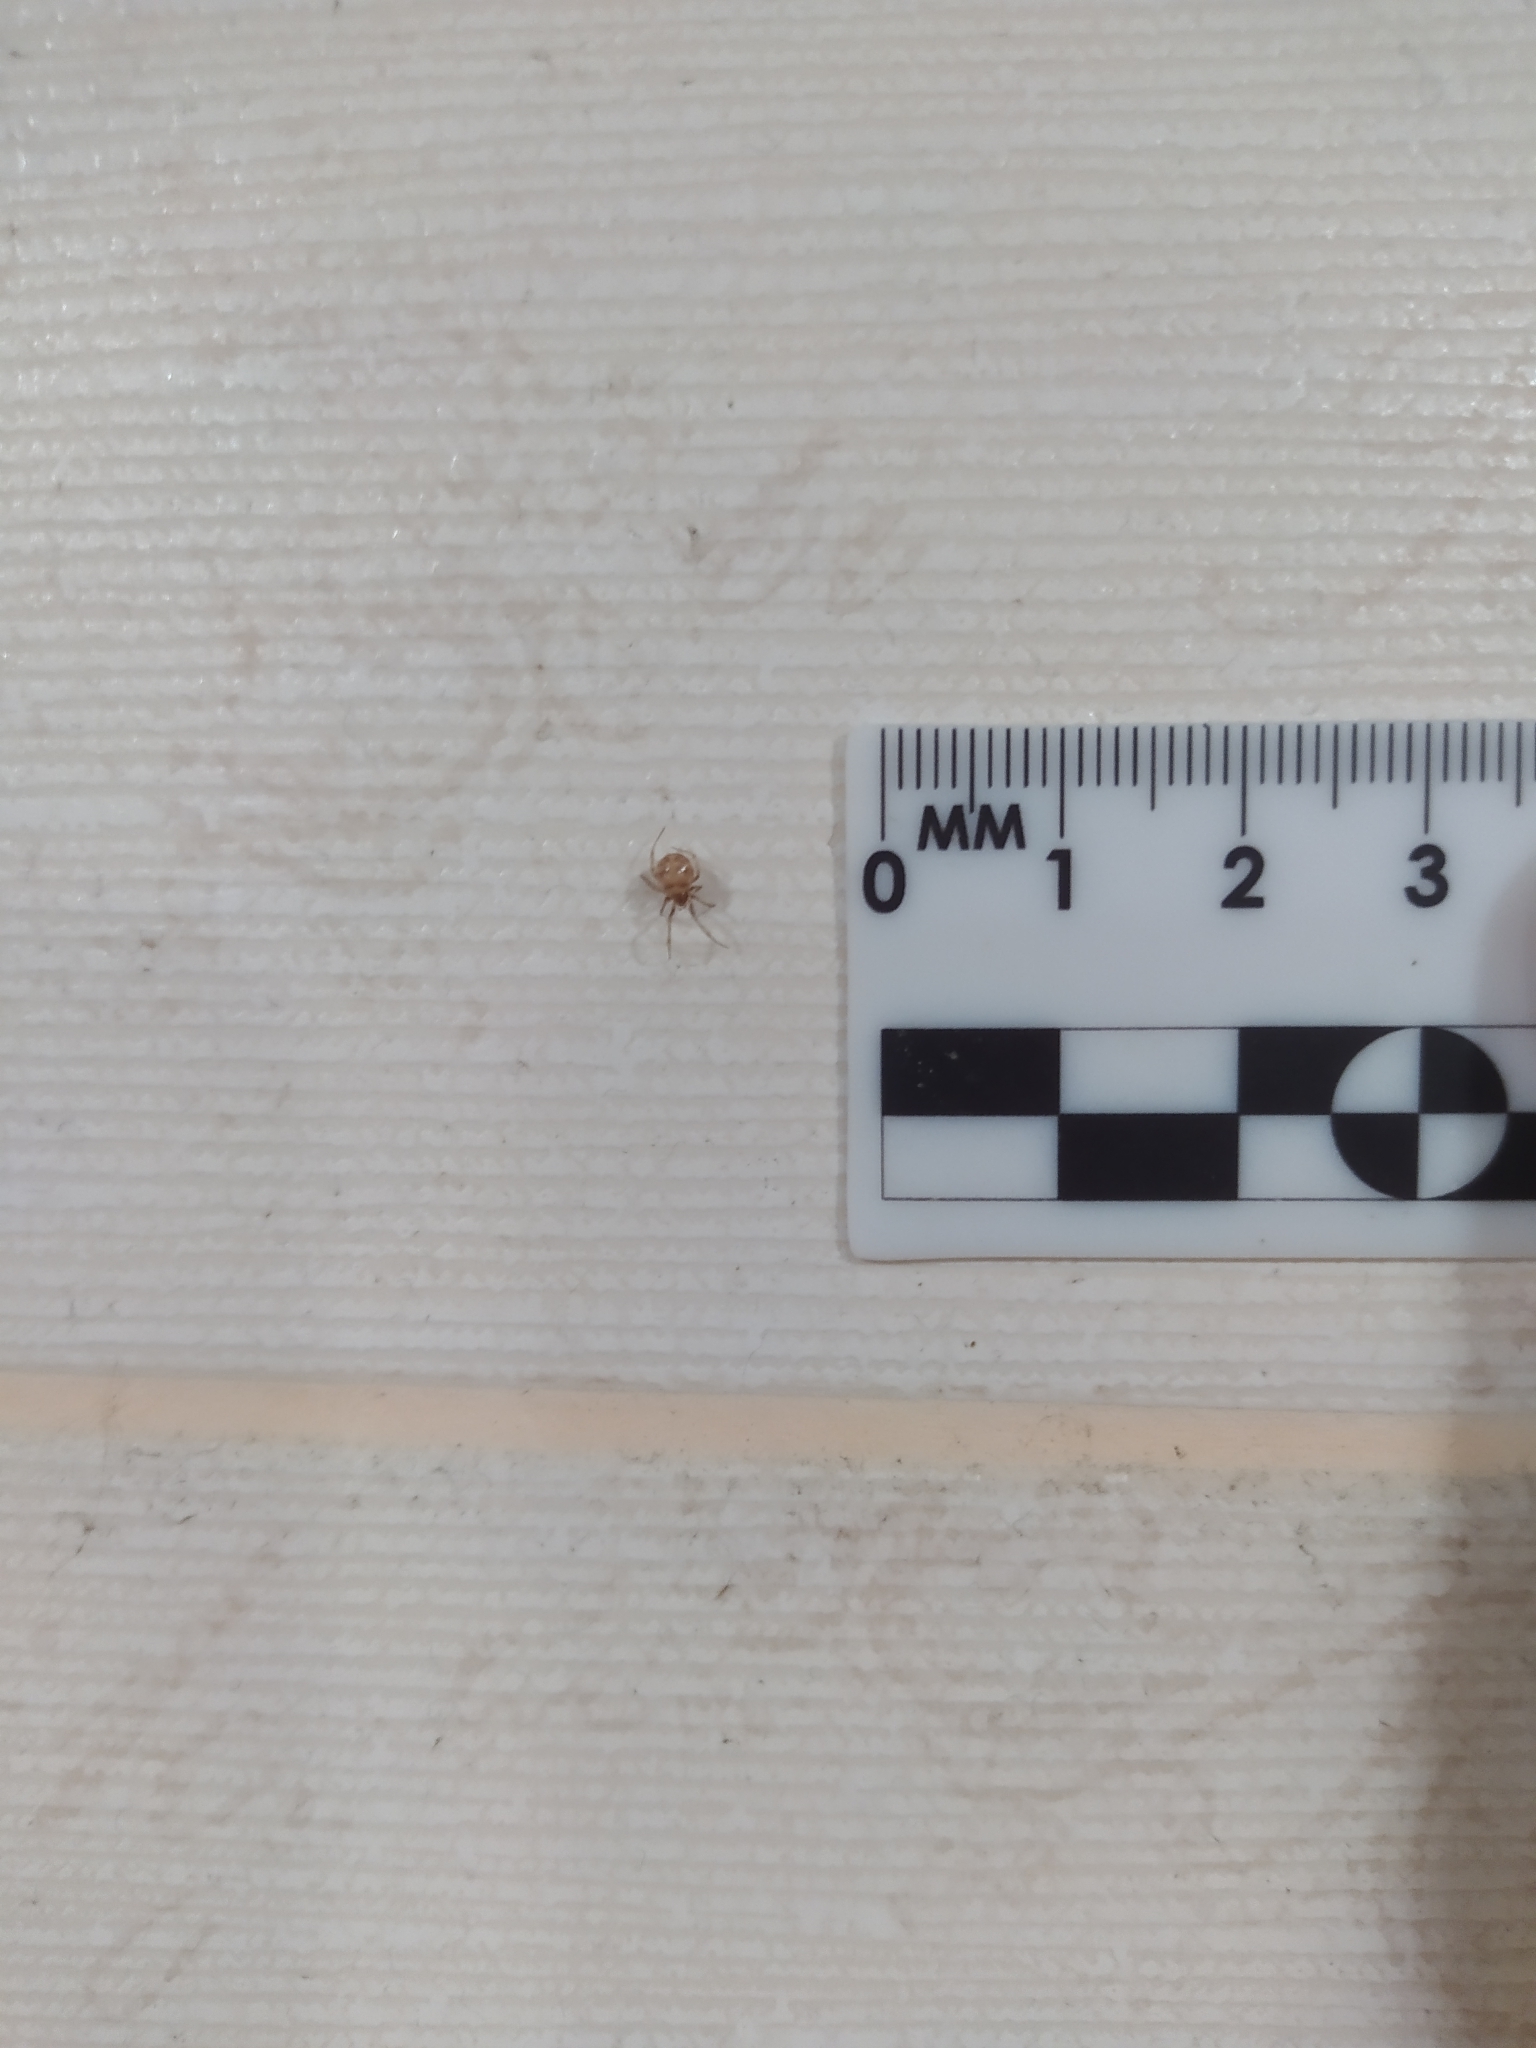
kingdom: Animalia
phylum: Arthropoda
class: Arachnida
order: Araneae
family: Theridiidae
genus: Steatoda
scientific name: Steatoda triangulosa
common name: Triangulate bud spider
